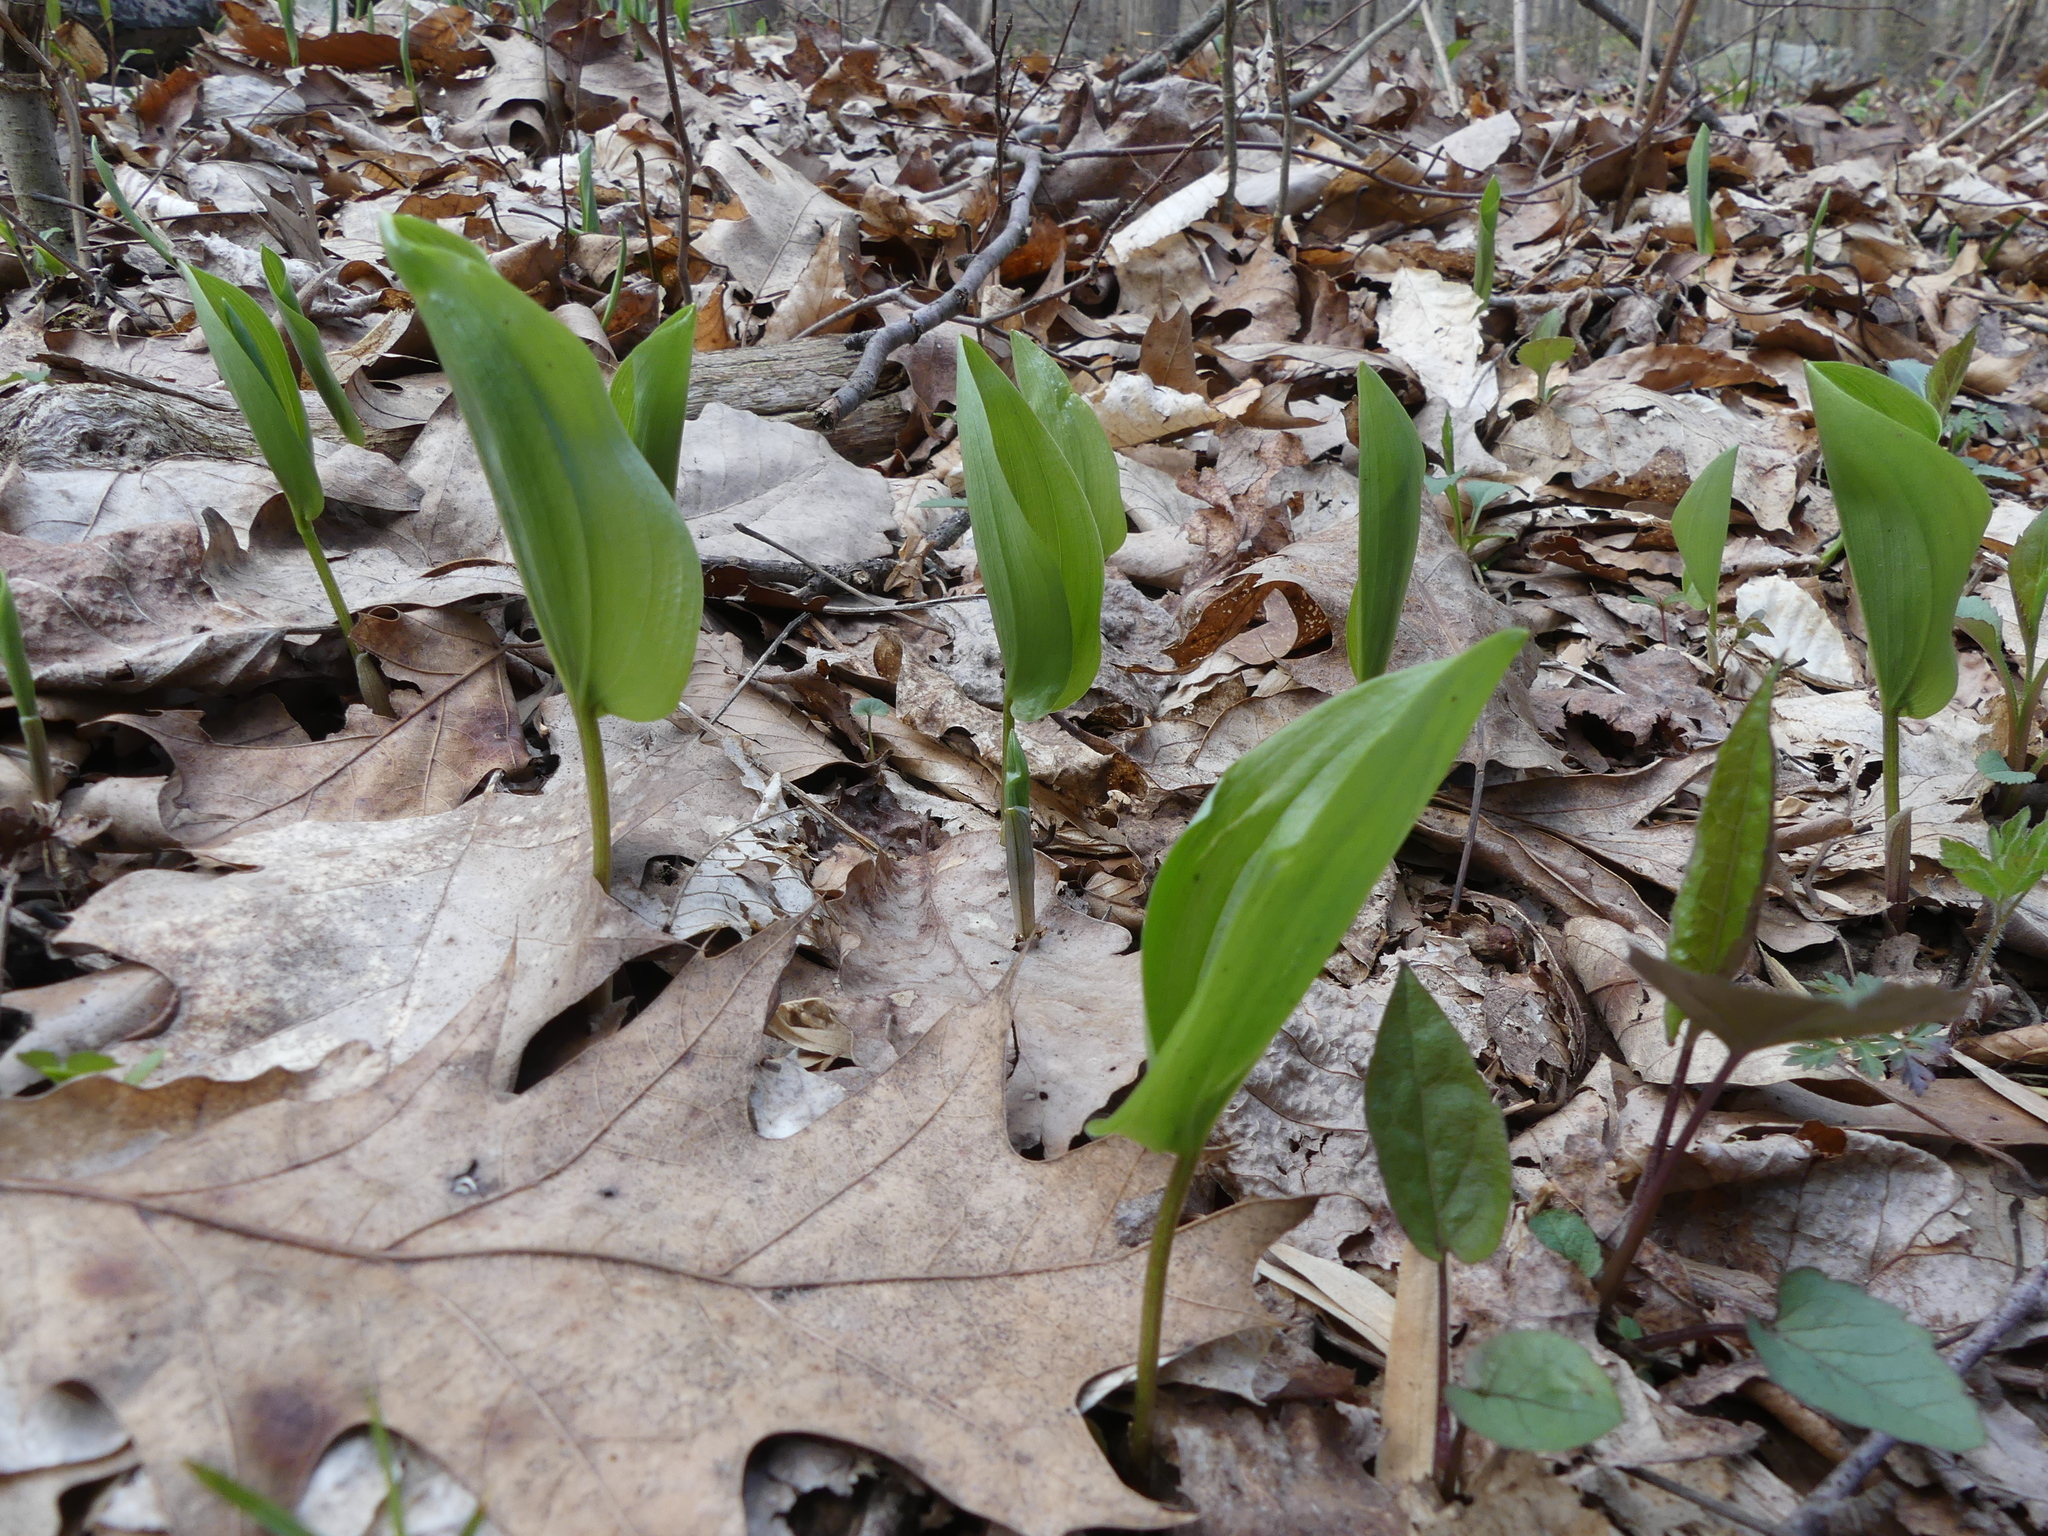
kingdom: Plantae
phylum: Tracheophyta
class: Liliopsida
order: Asparagales
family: Asparagaceae
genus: Maianthemum
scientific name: Maianthemum canadense
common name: False lily-of-the-valley
